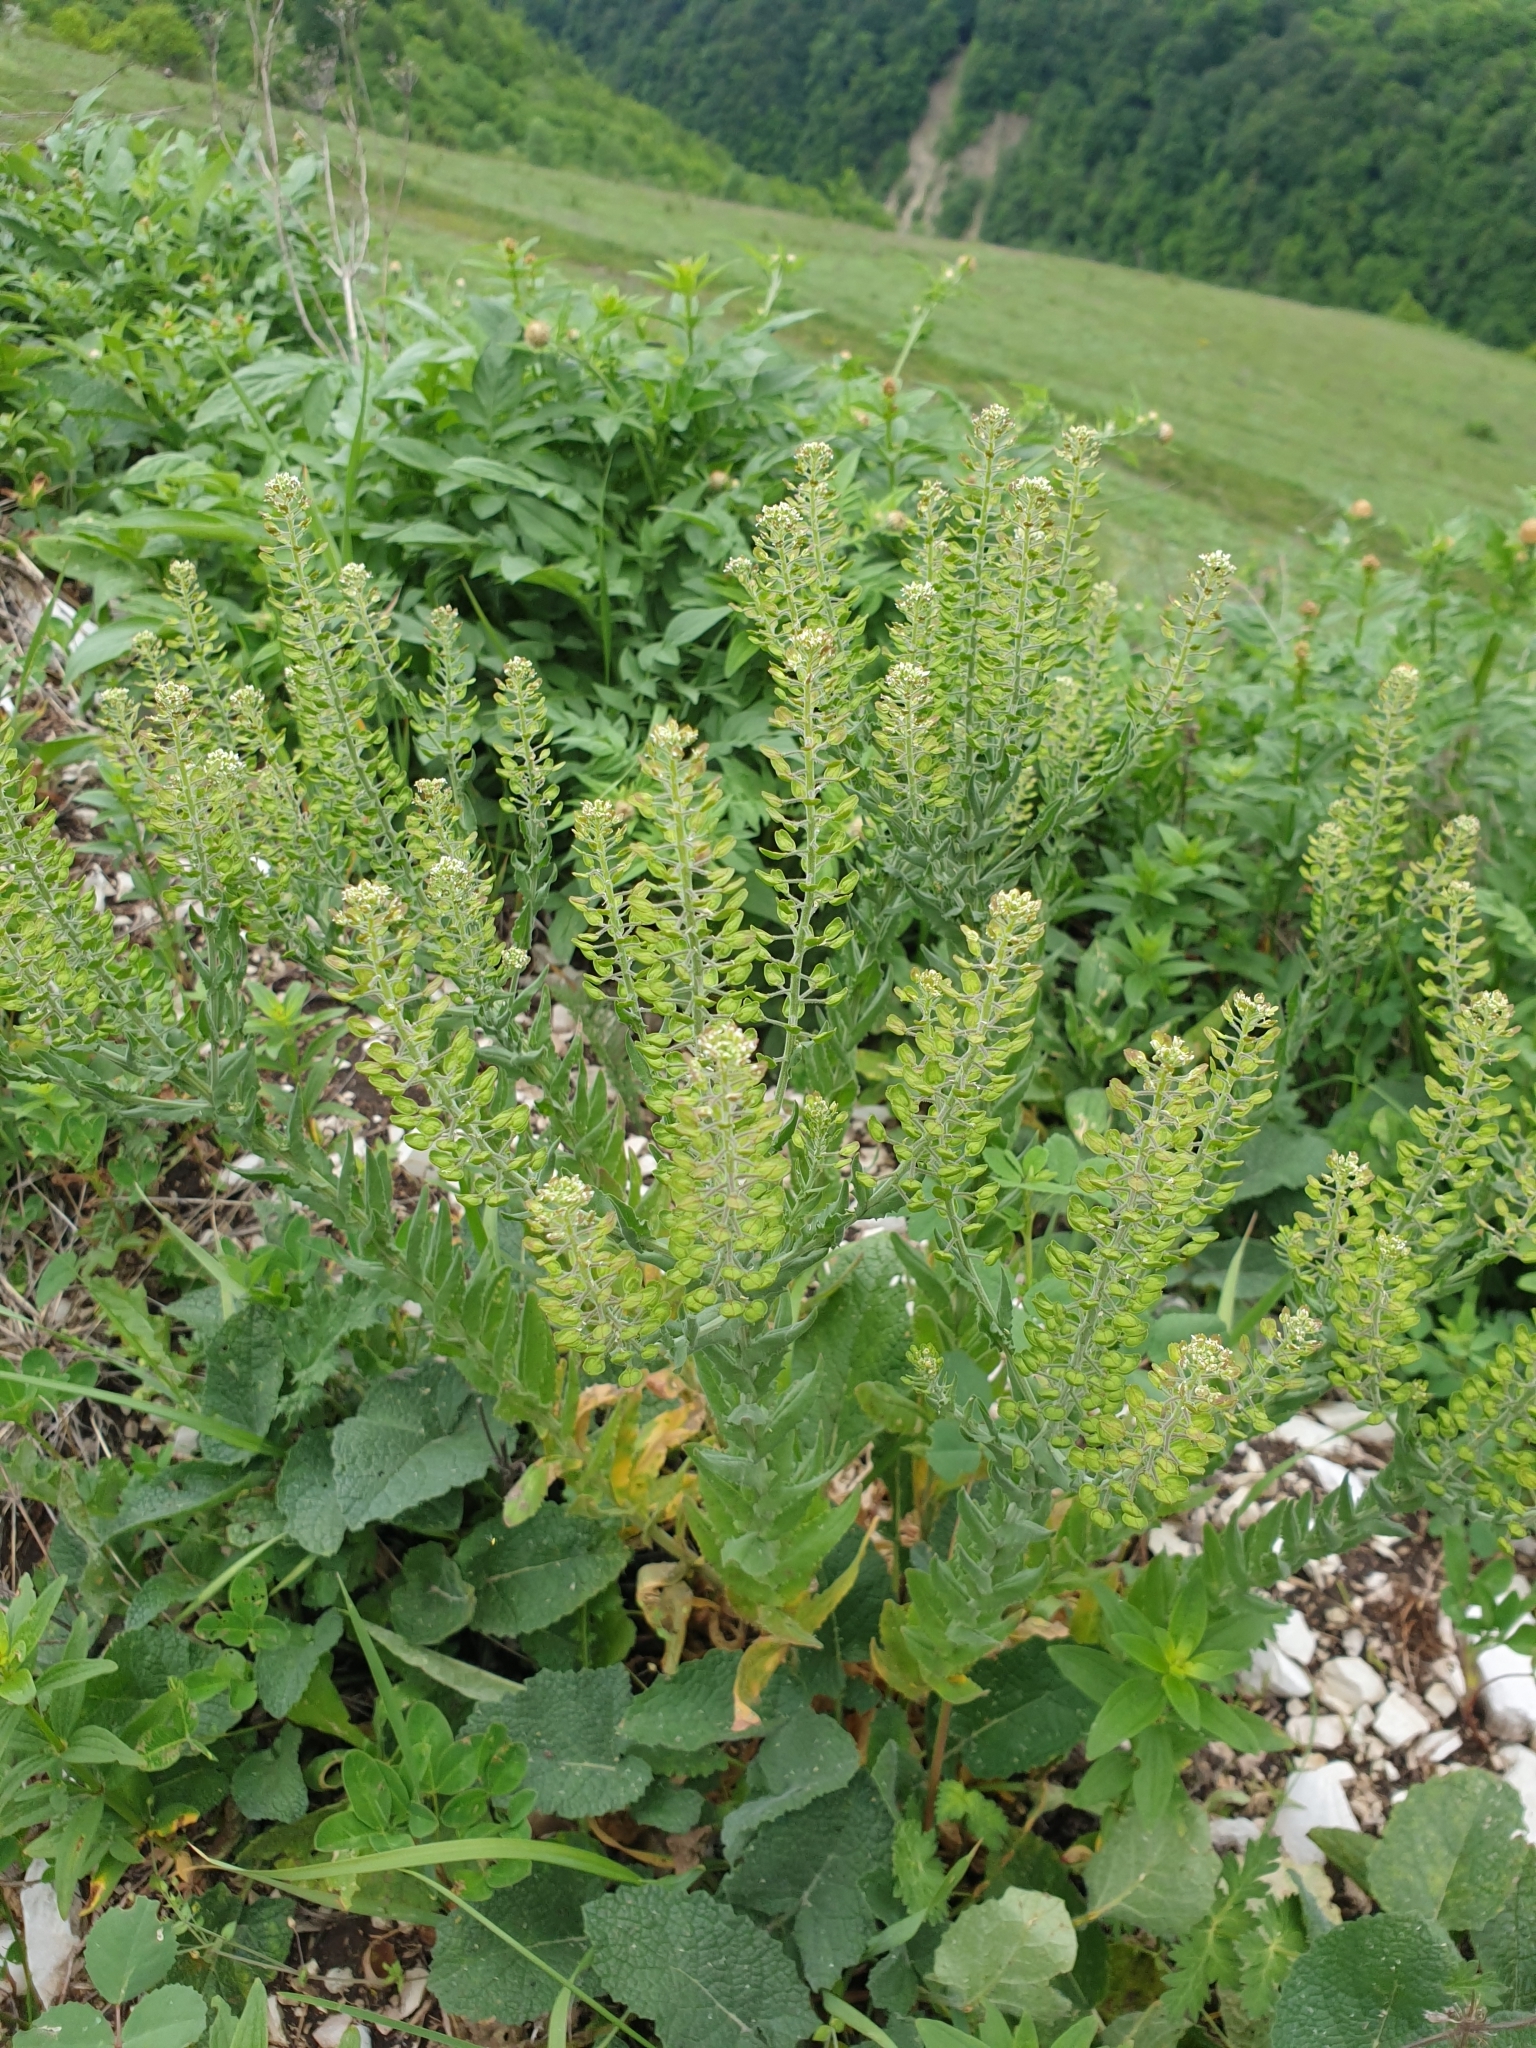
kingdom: Plantae
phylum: Tracheophyta
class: Magnoliopsida
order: Brassicales
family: Brassicaceae
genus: Lepidium
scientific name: Lepidium campestre
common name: Field pepperwort
